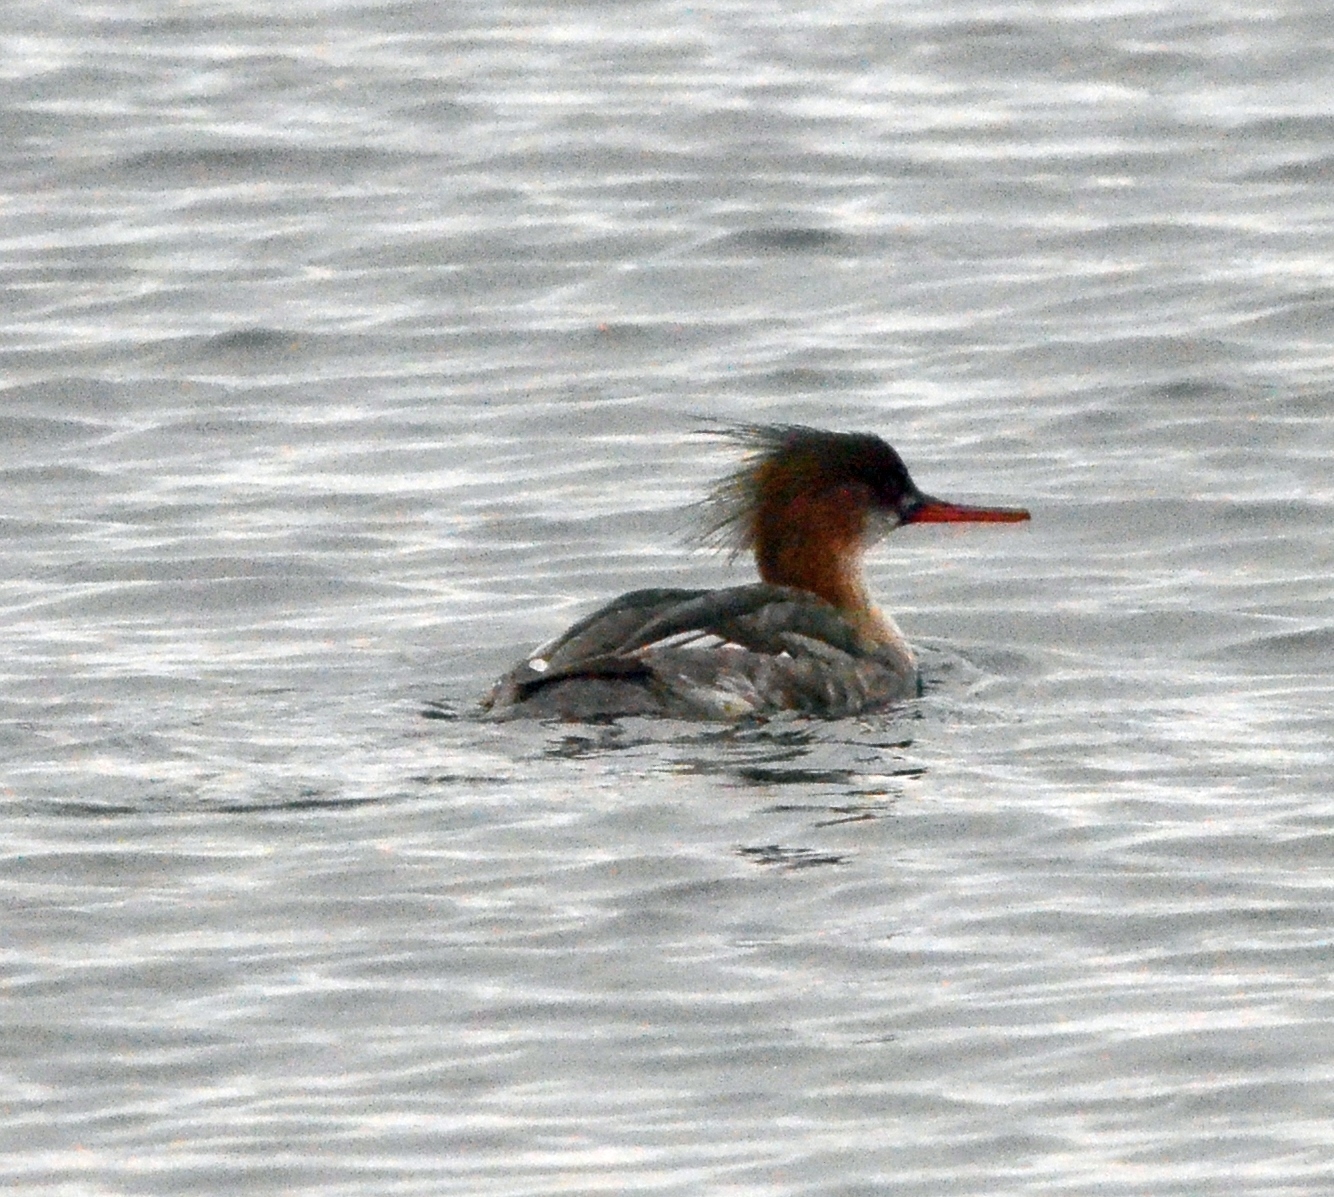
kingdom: Animalia
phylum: Chordata
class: Aves
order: Anseriformes
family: Anatidae
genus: Mergus
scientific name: Mergus serrator
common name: Red-breasted merganser
